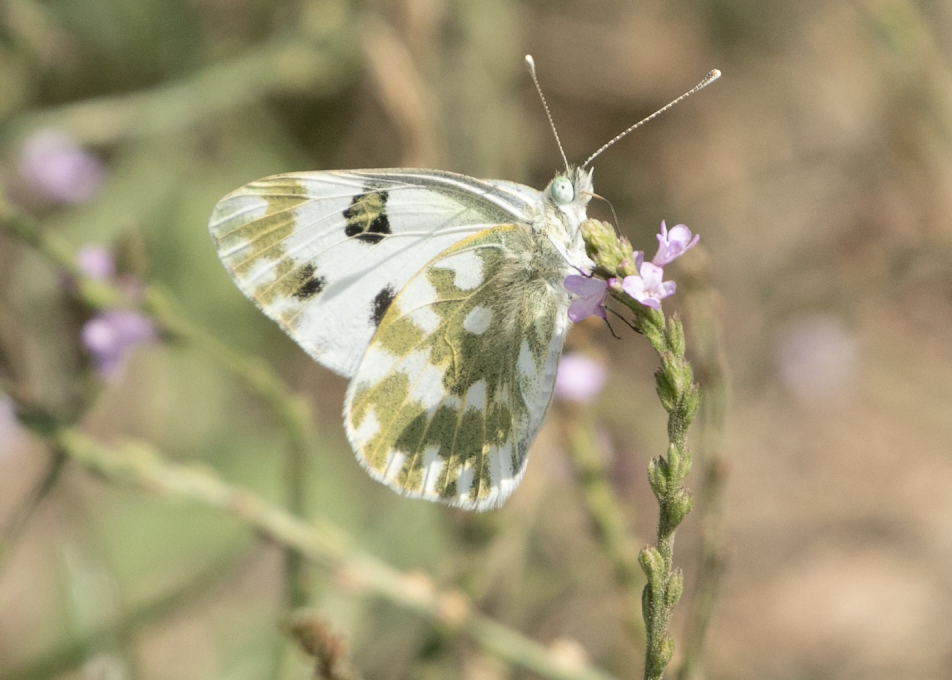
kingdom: Animalia
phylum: Arthropoda
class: Insecta
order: Lepidoptera
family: Pieridae
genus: Pontia
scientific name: Pontia edusa
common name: Eastern bath white
